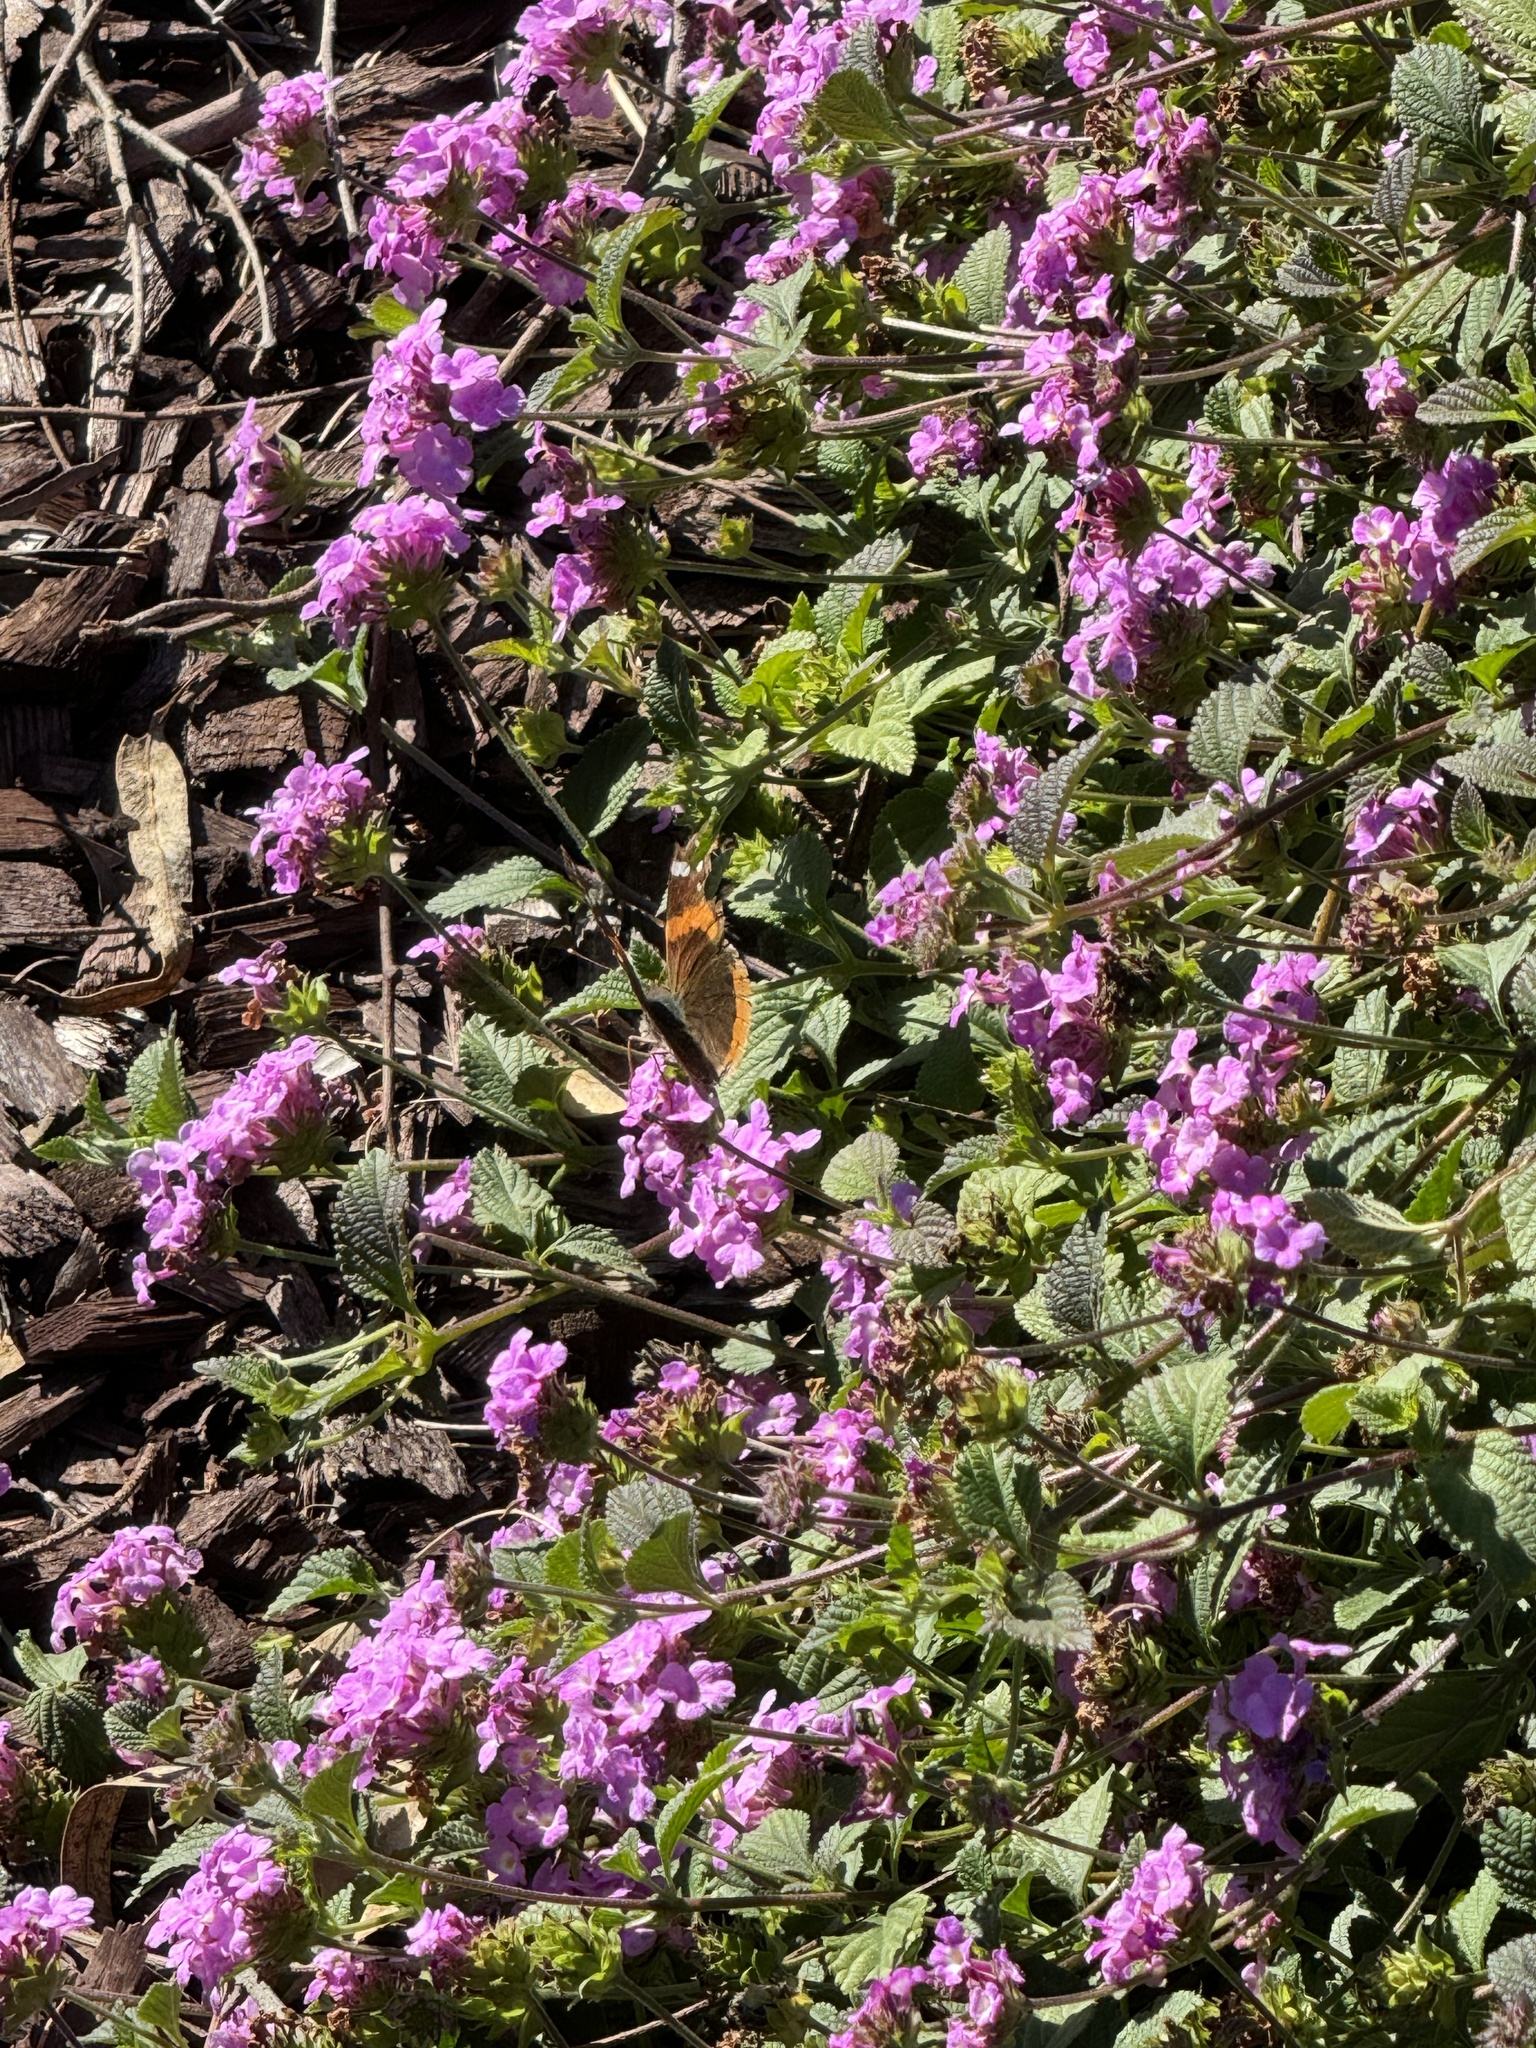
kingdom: Animalia
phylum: Arthropoda
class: Insecta
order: Lepidoptera
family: Nymphalidae
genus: Vanessa
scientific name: Vanessa atalanta
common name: Red admiral
